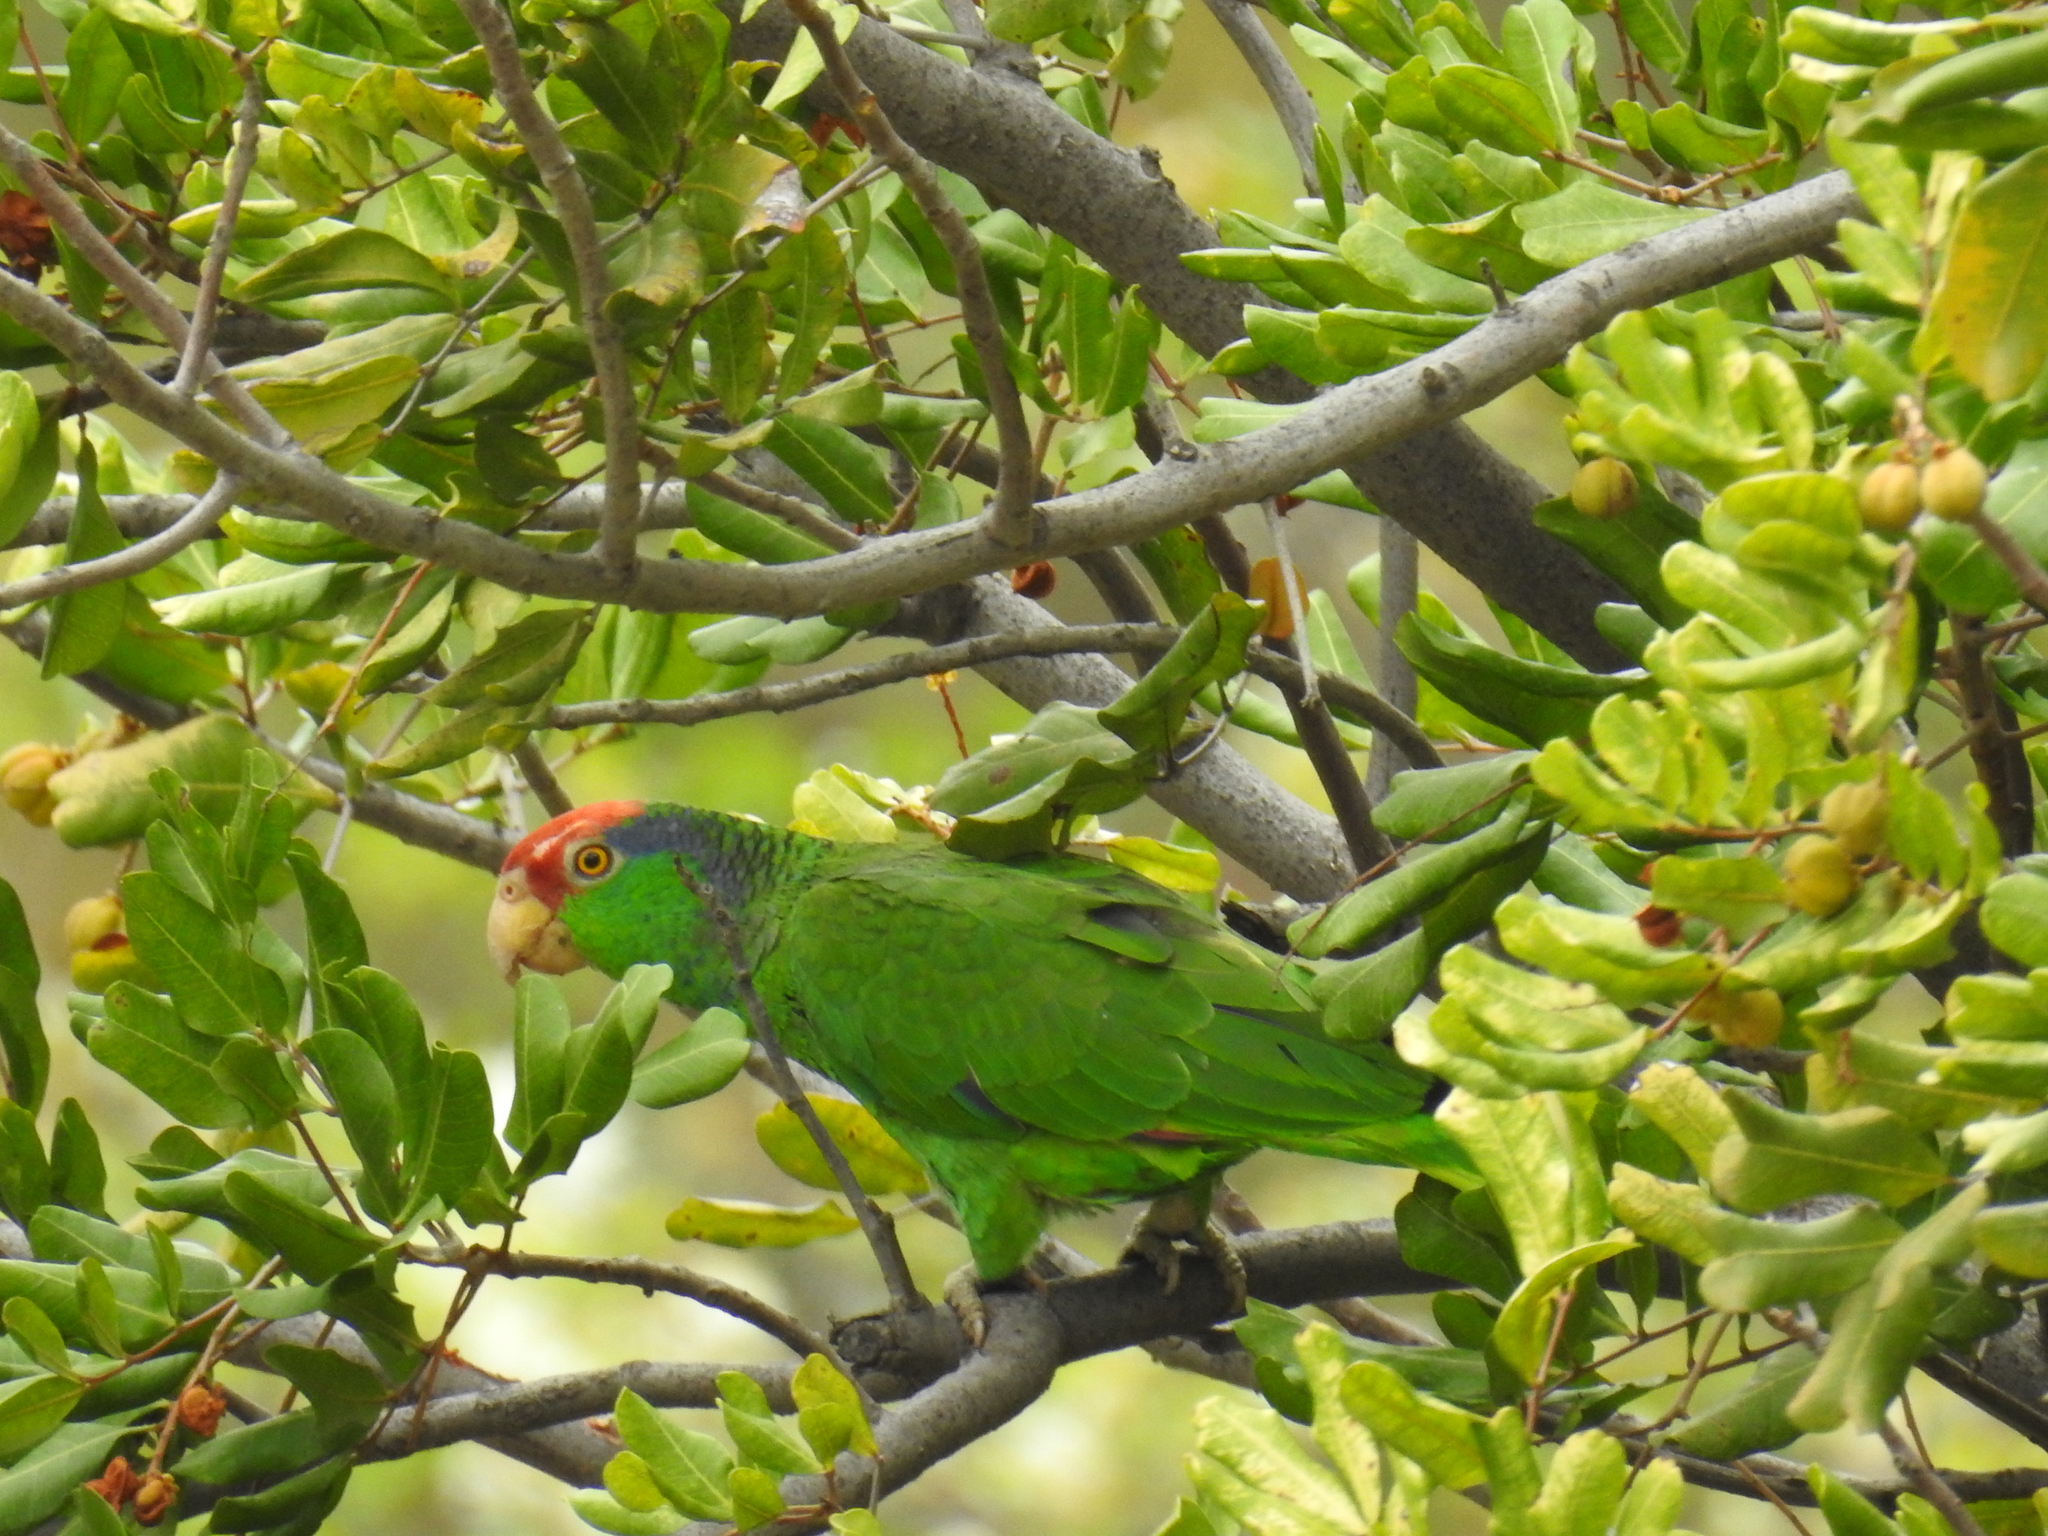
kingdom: Animalia
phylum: Chordata
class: Aves
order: Psittaciformes
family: Psittacidae
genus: Amazona
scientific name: Amazona viridigenalis
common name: Red-crowned amazon
